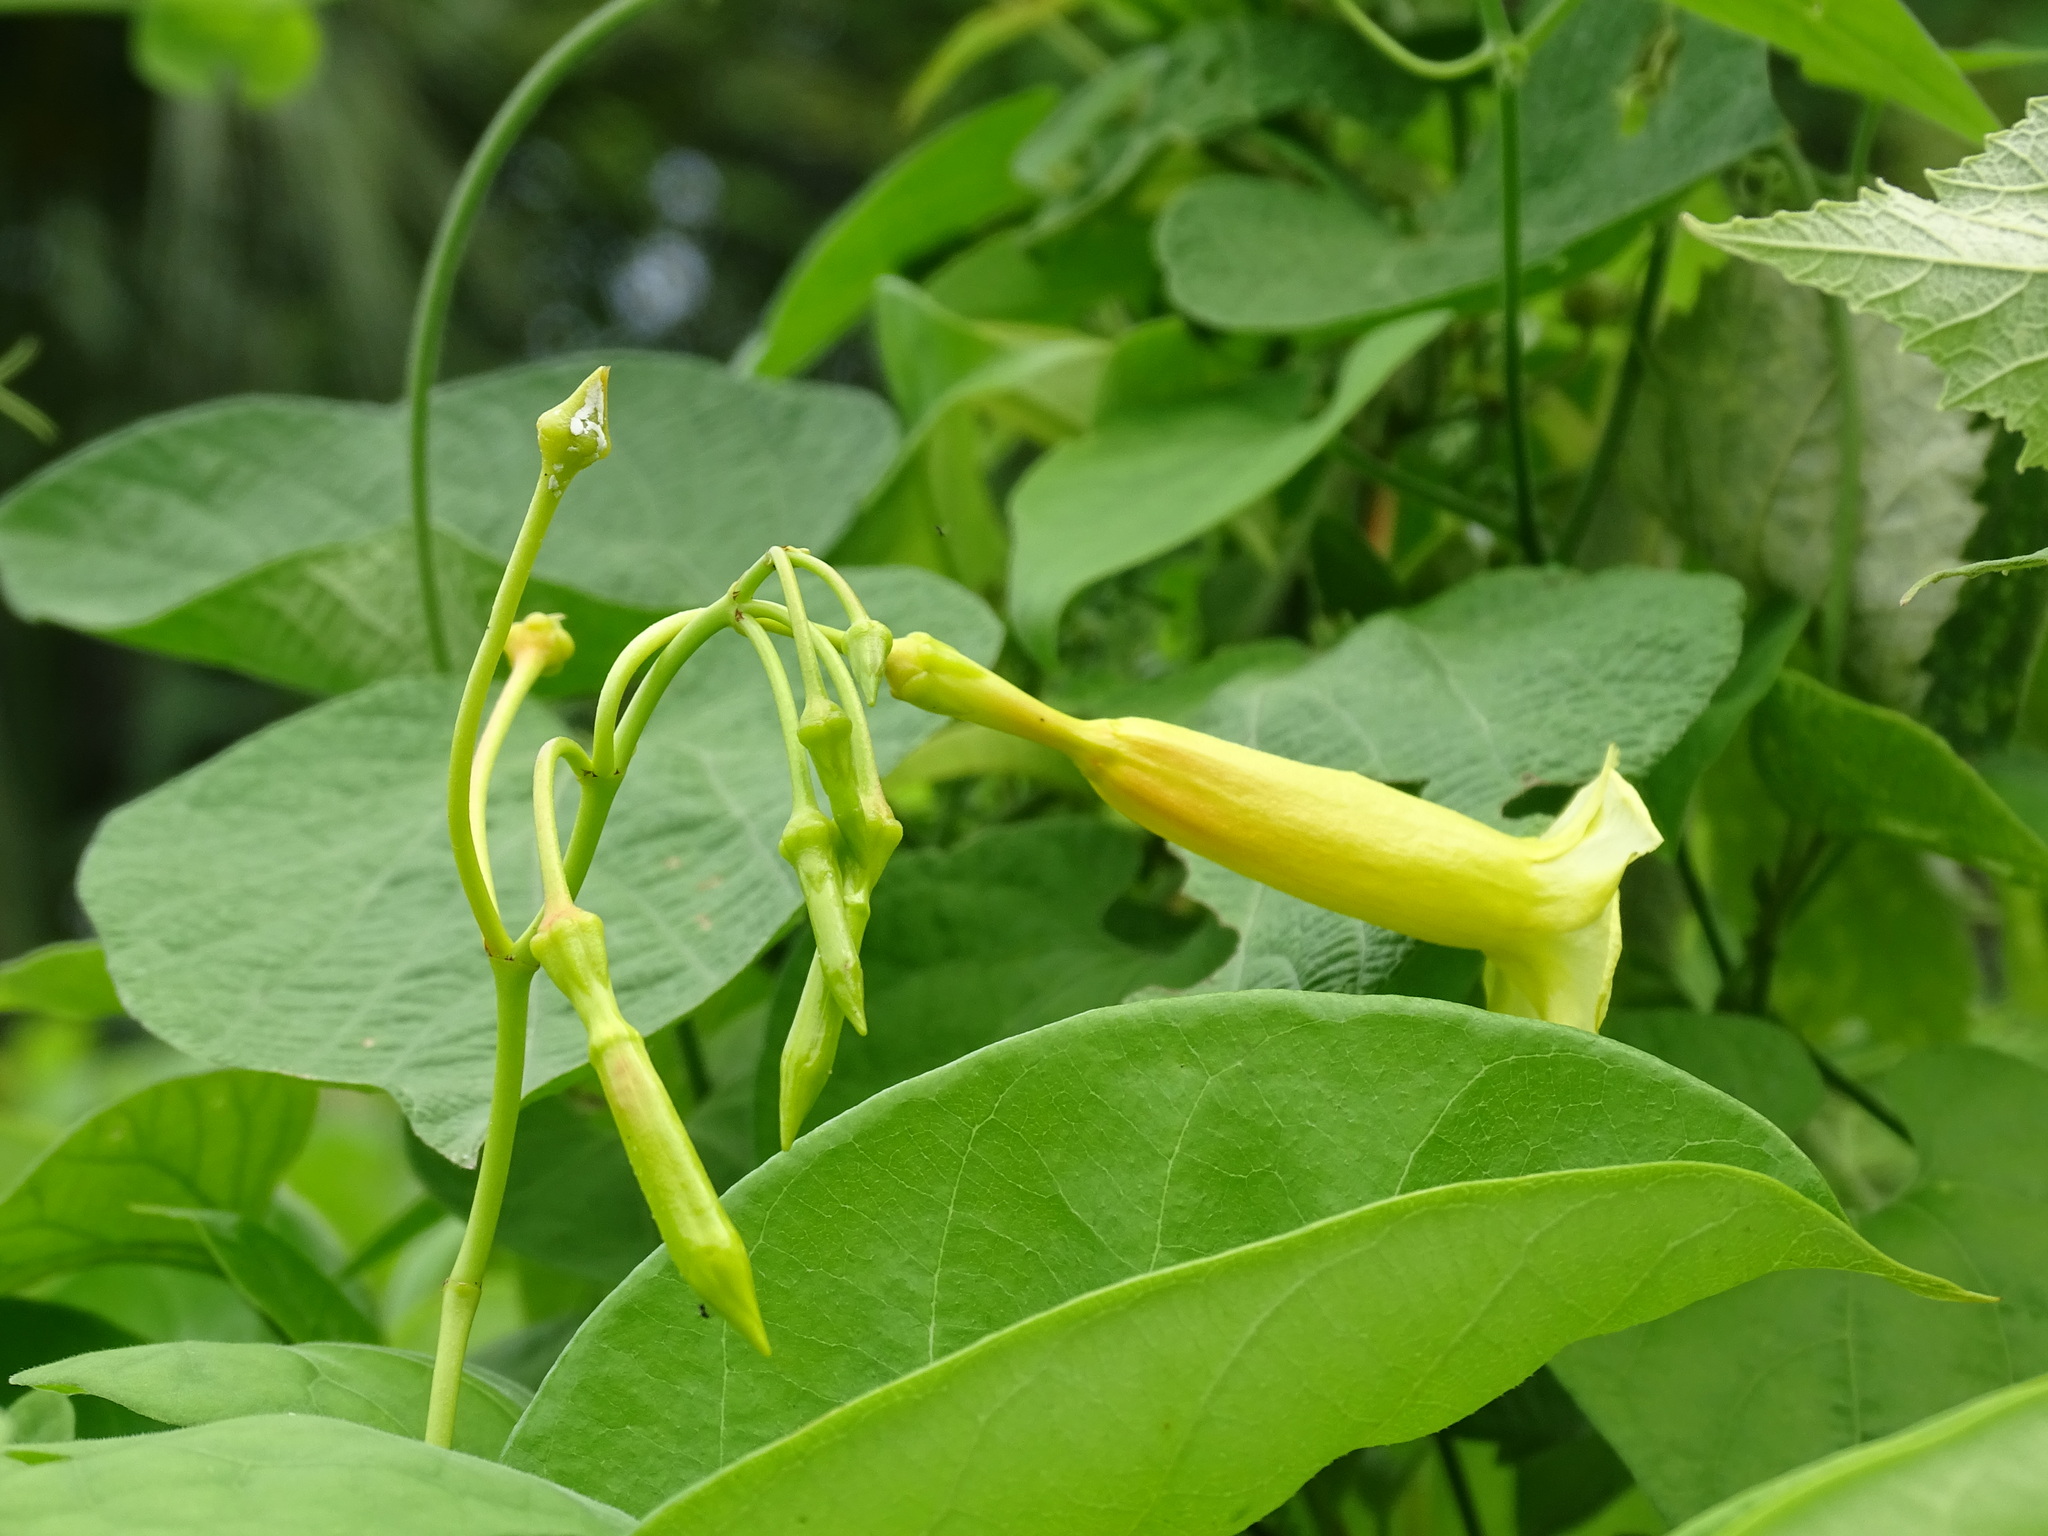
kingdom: Plantae
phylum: Tracheophyta
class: Magnoliopsida
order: Gentianales
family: Apocynaceae
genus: Pentalinon
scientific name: Pentalinon andrieuxii
